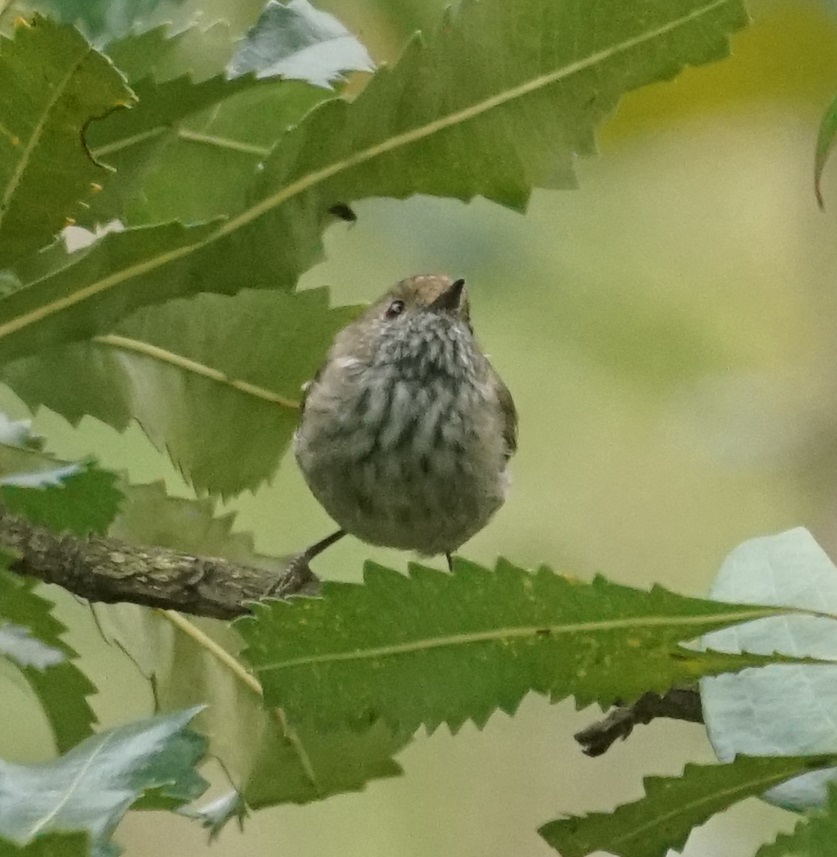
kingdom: Animalia
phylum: Chordata
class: Aves
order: Passeriformes
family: Acanthizidae
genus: Acanthiza
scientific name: Acanthiza pusilla
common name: Brown thornbill
